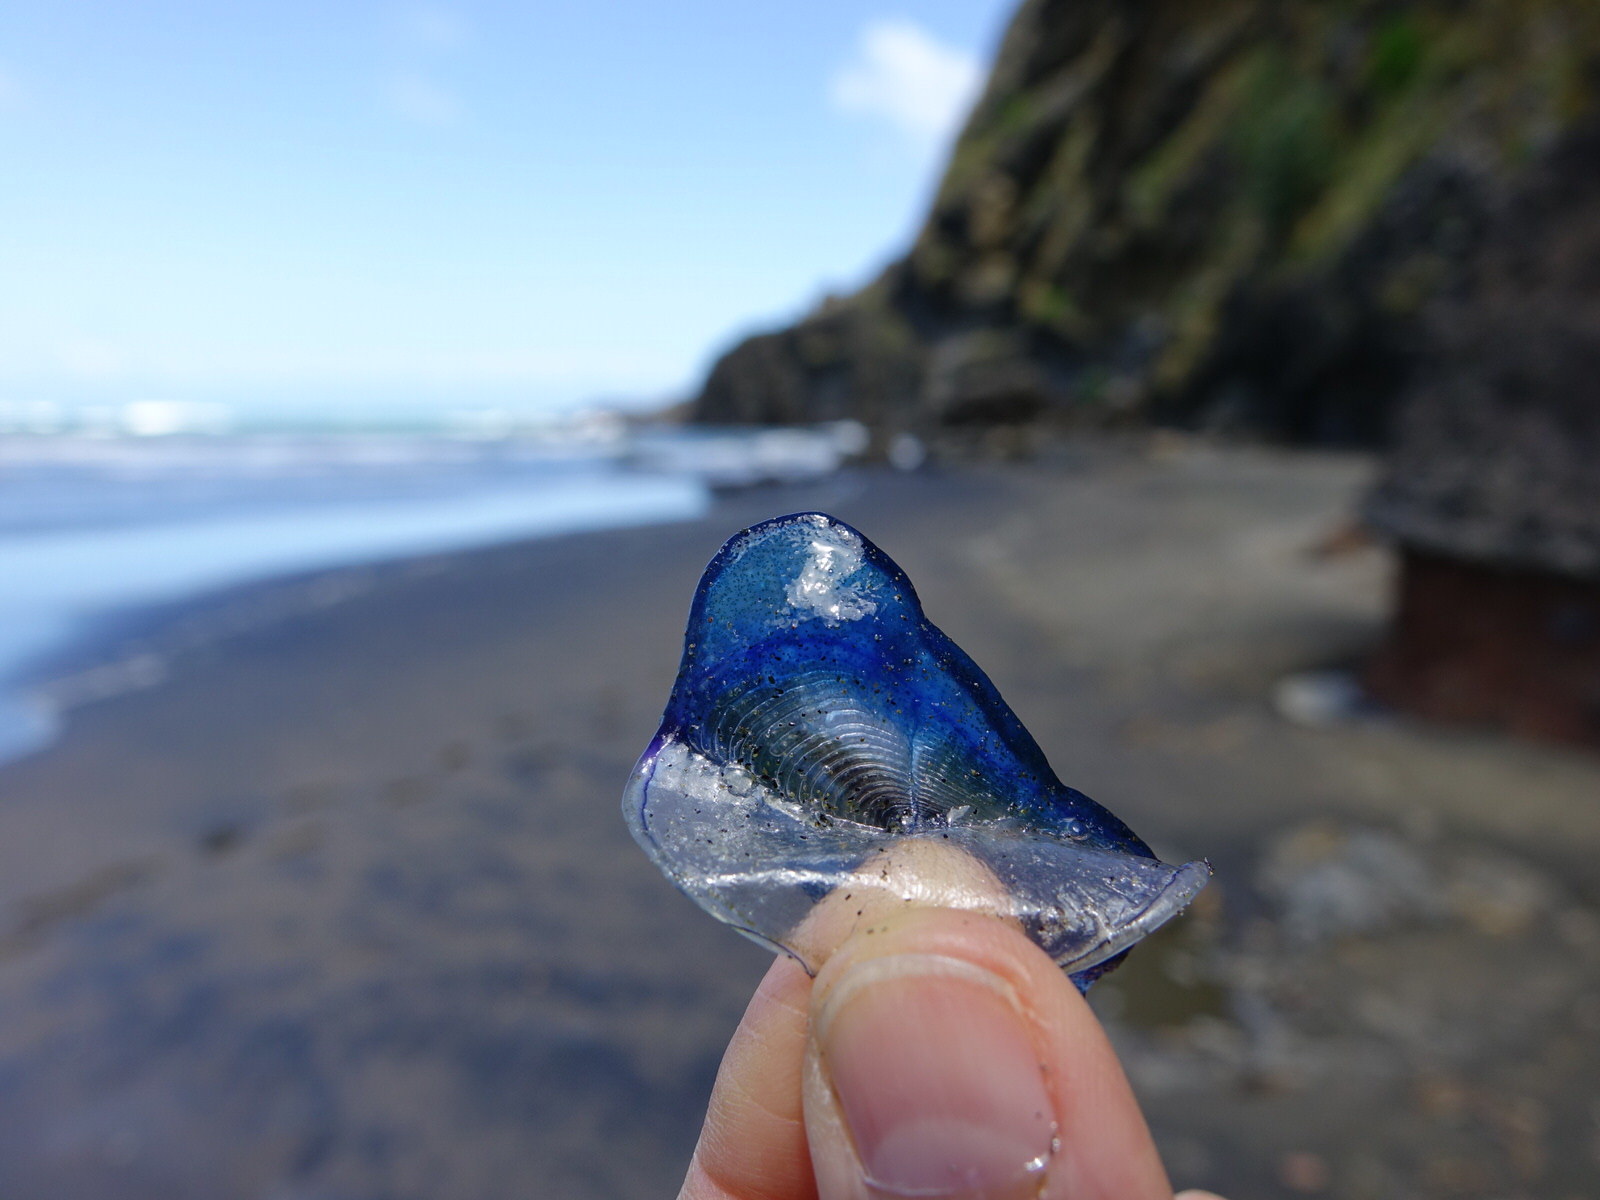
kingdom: Animalia
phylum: Cnidaria
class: Hydrozoa
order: Anthoathecata
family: Porpitidae
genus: Velella
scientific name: Velella velella
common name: By-the-wind-sailor
